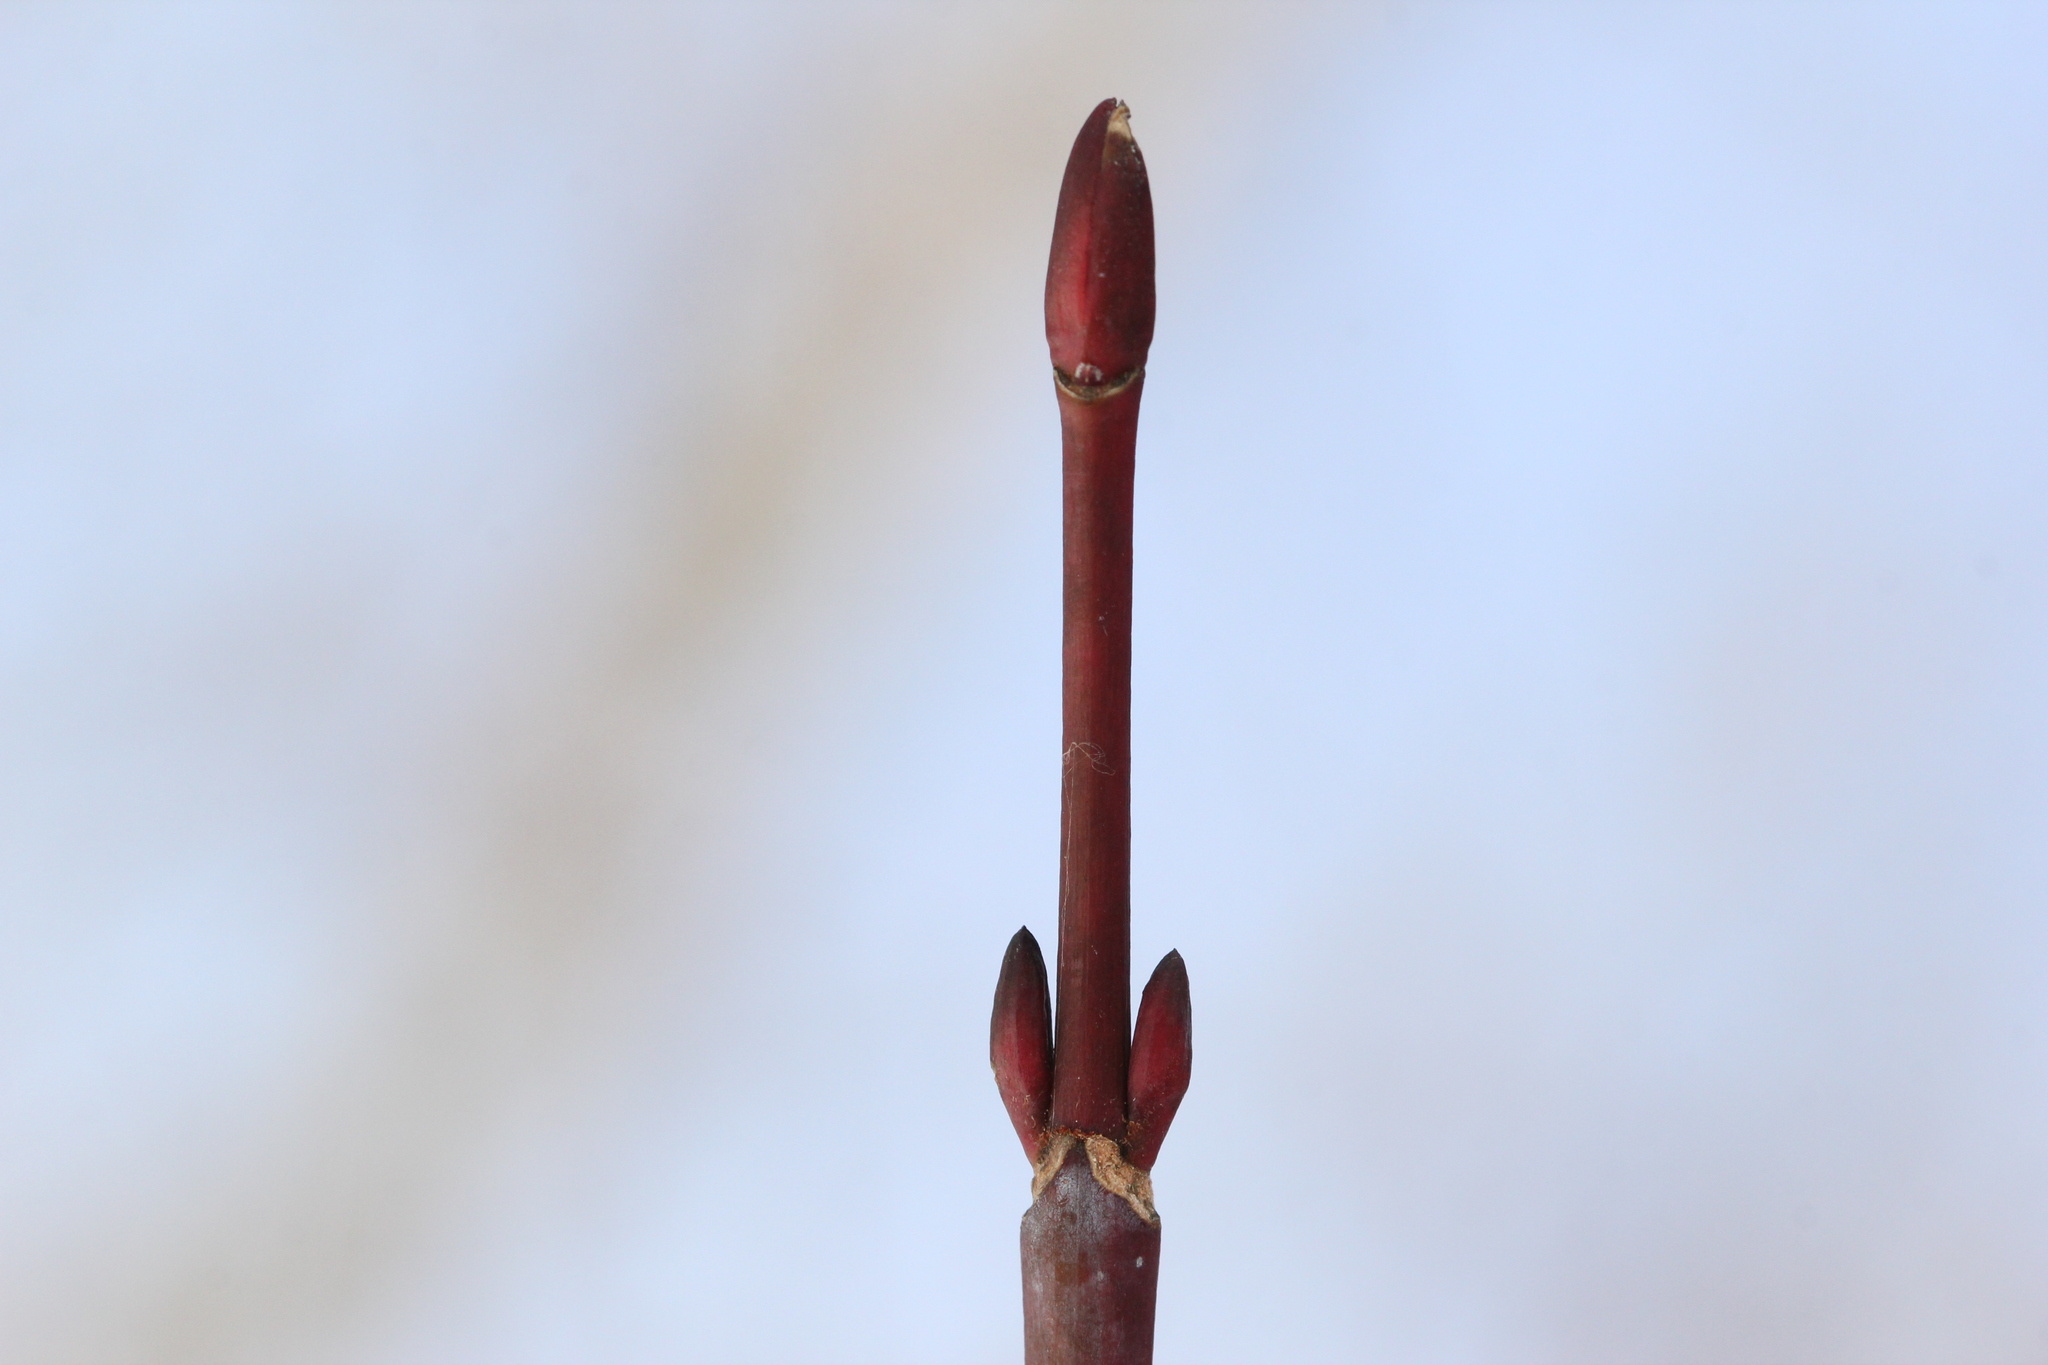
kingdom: Plantae
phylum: Tracheophyta
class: Magnoliopsida
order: Sapindales
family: Sapindaceae
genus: Acer
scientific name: Acer pensylvanicum
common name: Moosewood
